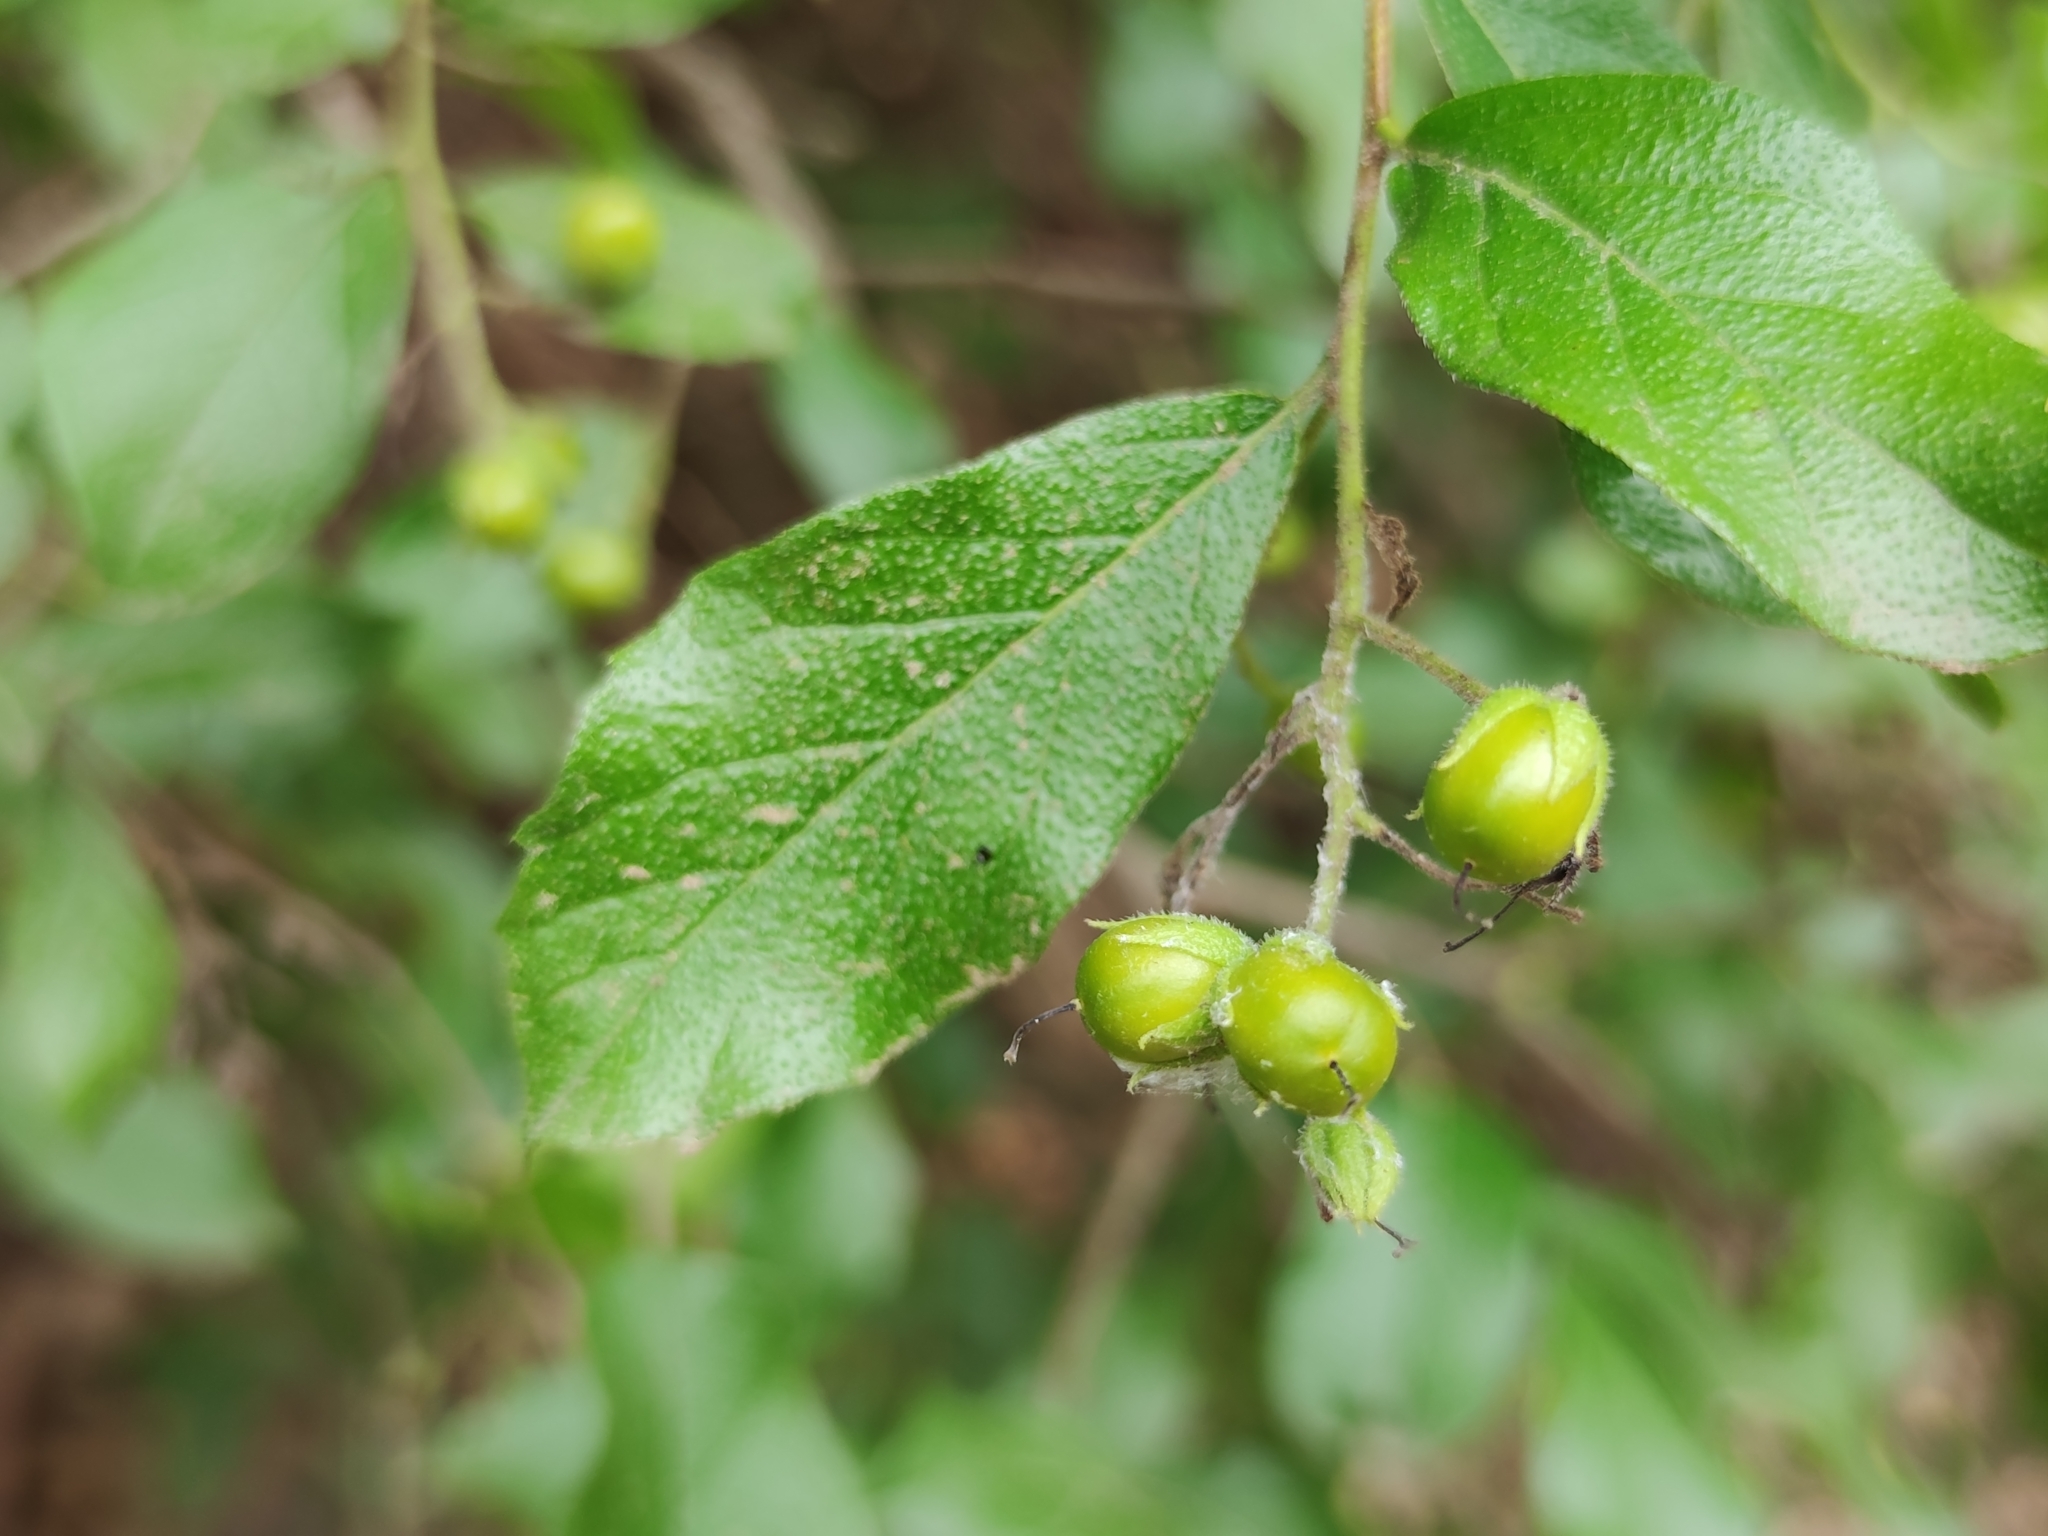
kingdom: Plantae
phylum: Tracheophyta
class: Magnoliopsida
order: Boraginales
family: Ehretiaceae
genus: Ehretia
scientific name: Ehretia anacua
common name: Sugarberry
